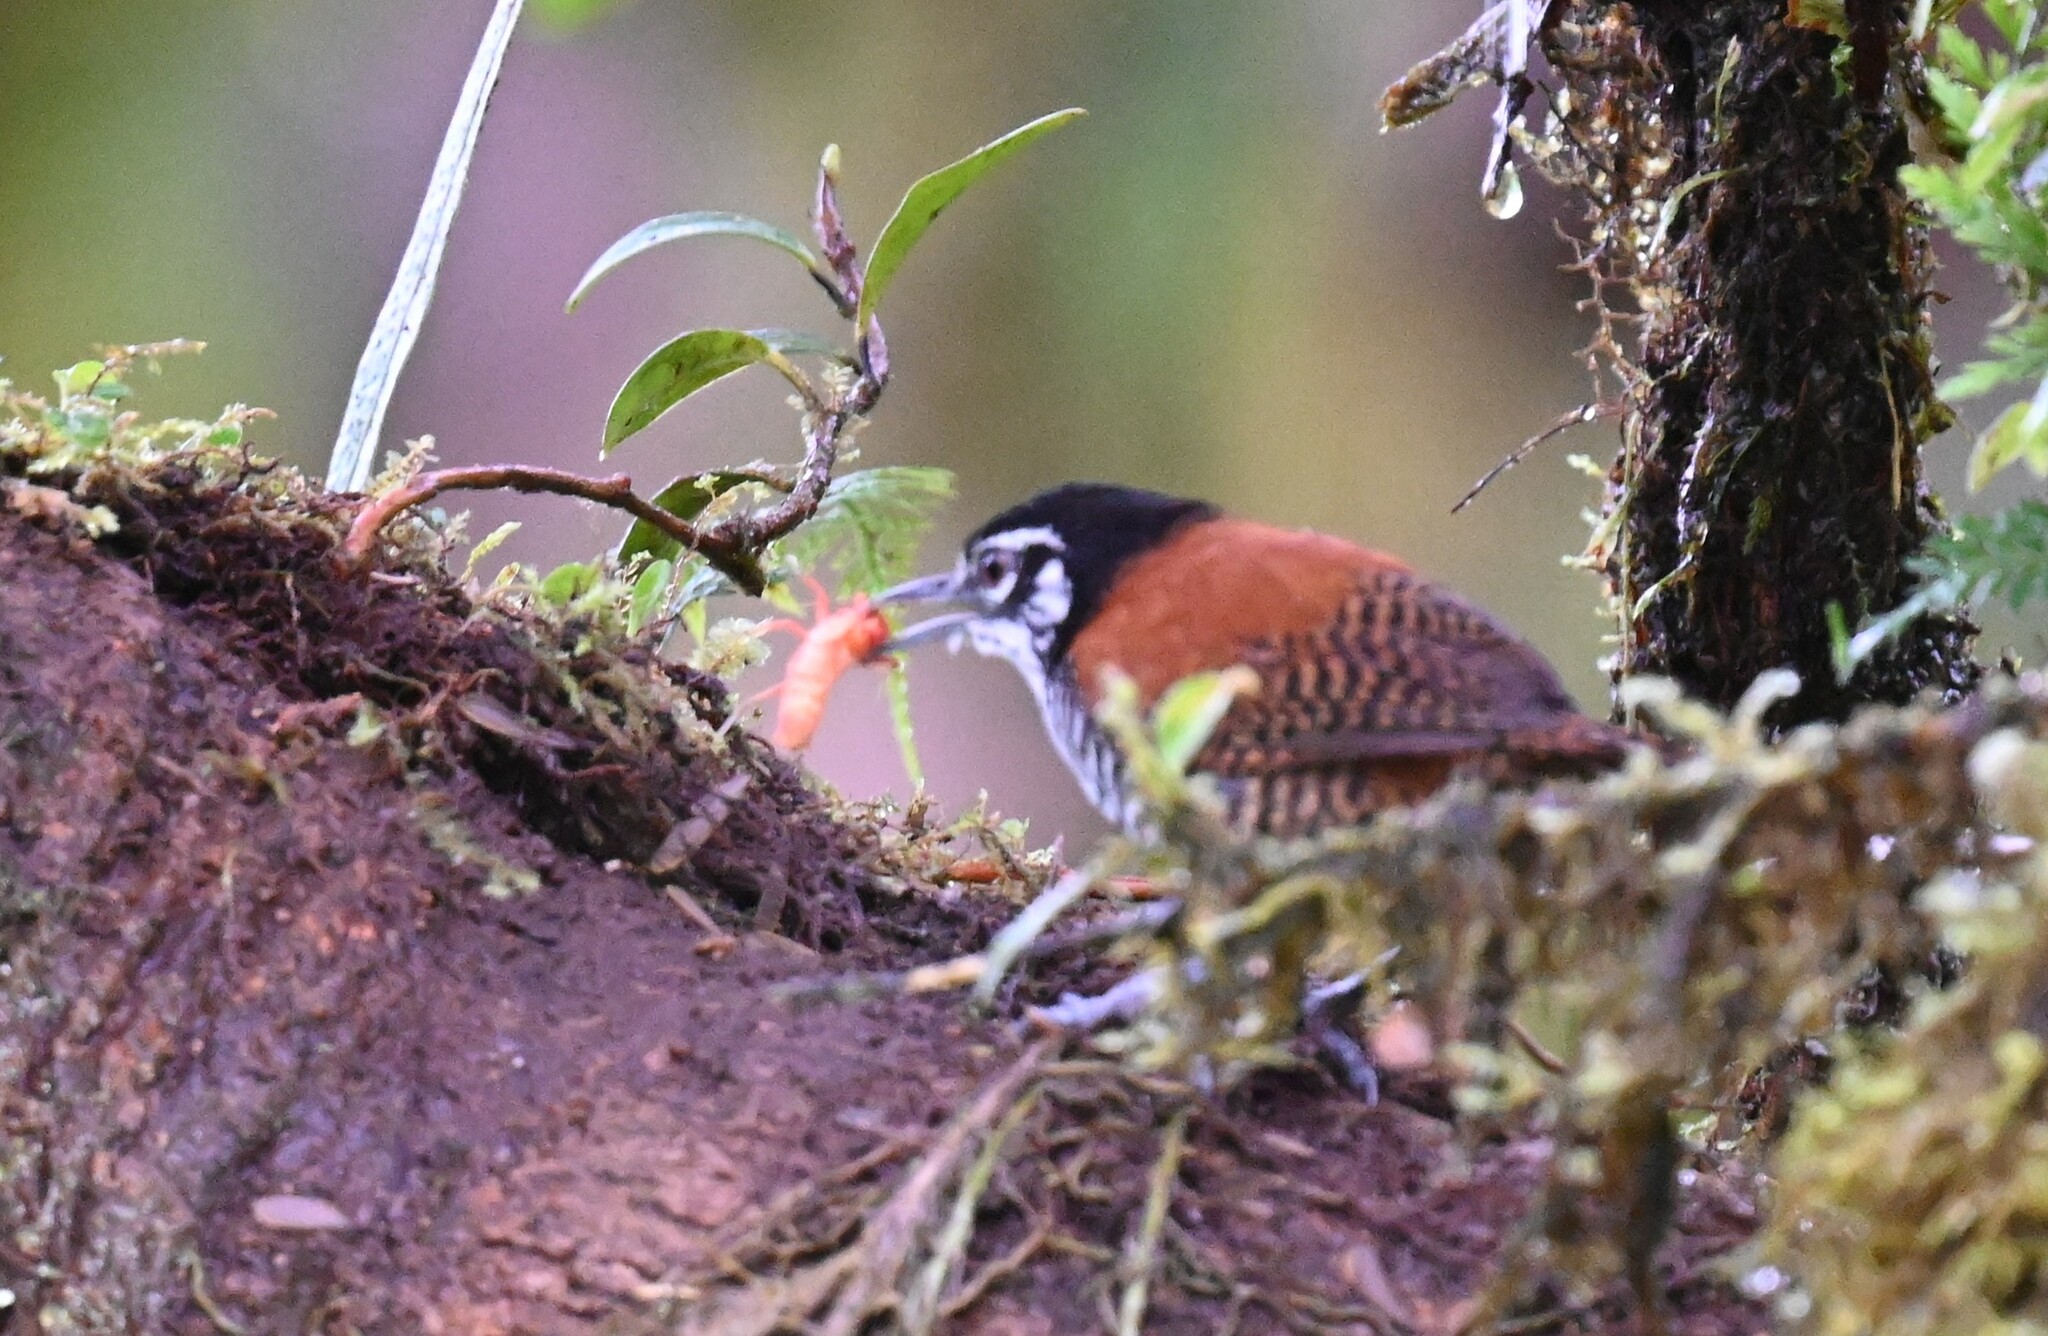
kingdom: Animalia
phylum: Chordata
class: Aves
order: Passeriformes
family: Troglodytidae
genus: Cantorchilus
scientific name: Cantorchilus nigricapillus
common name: Bay wren
